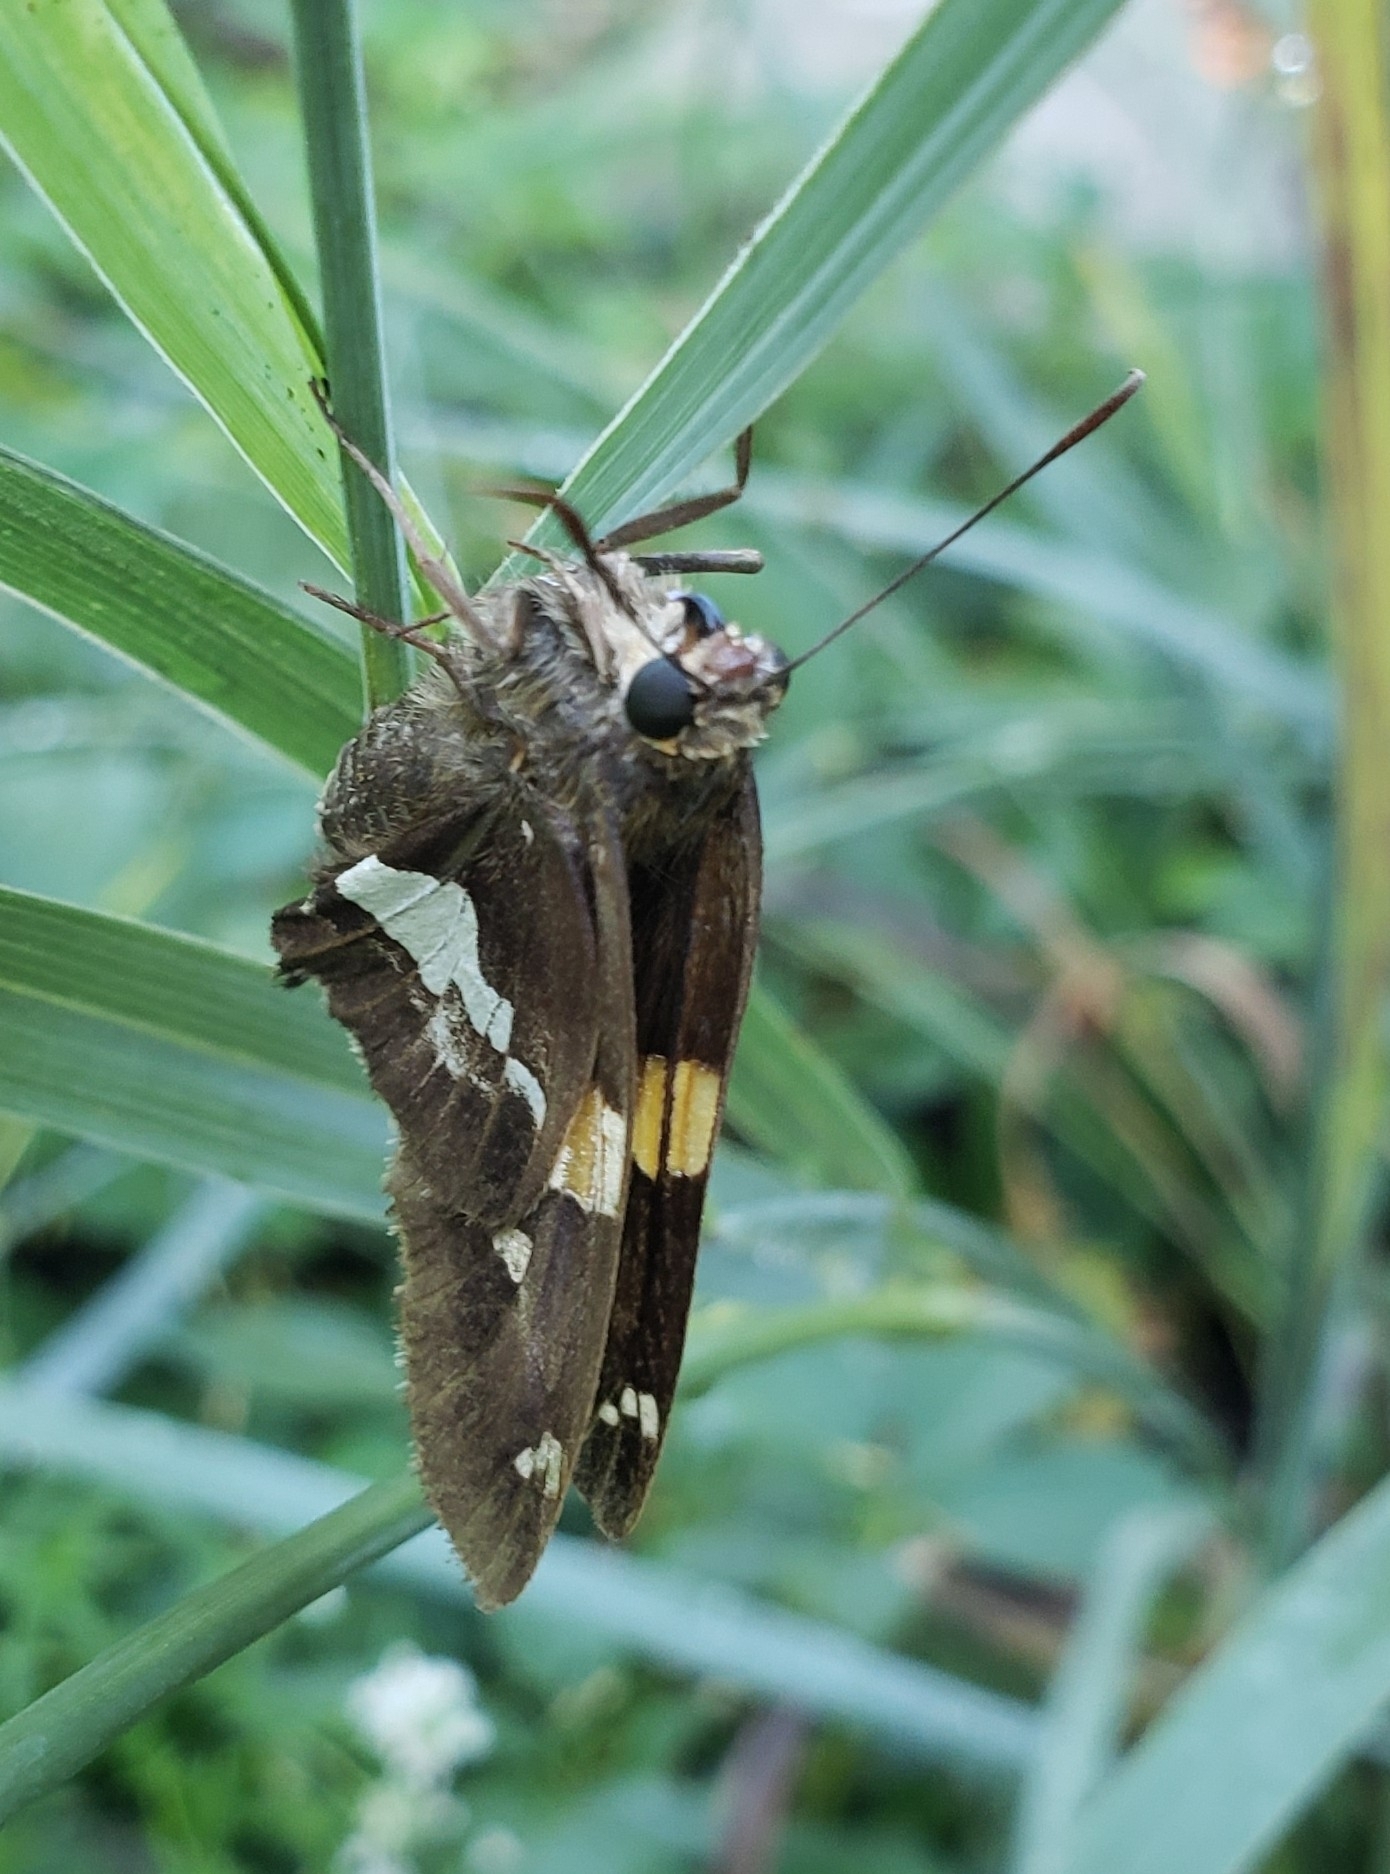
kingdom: Animalia
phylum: Arthropoda
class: Insecta
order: Lepidoptera
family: Hesperiidae
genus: Epargyreus
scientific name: Epargyreus clarus
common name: Silver-spotted skipper
